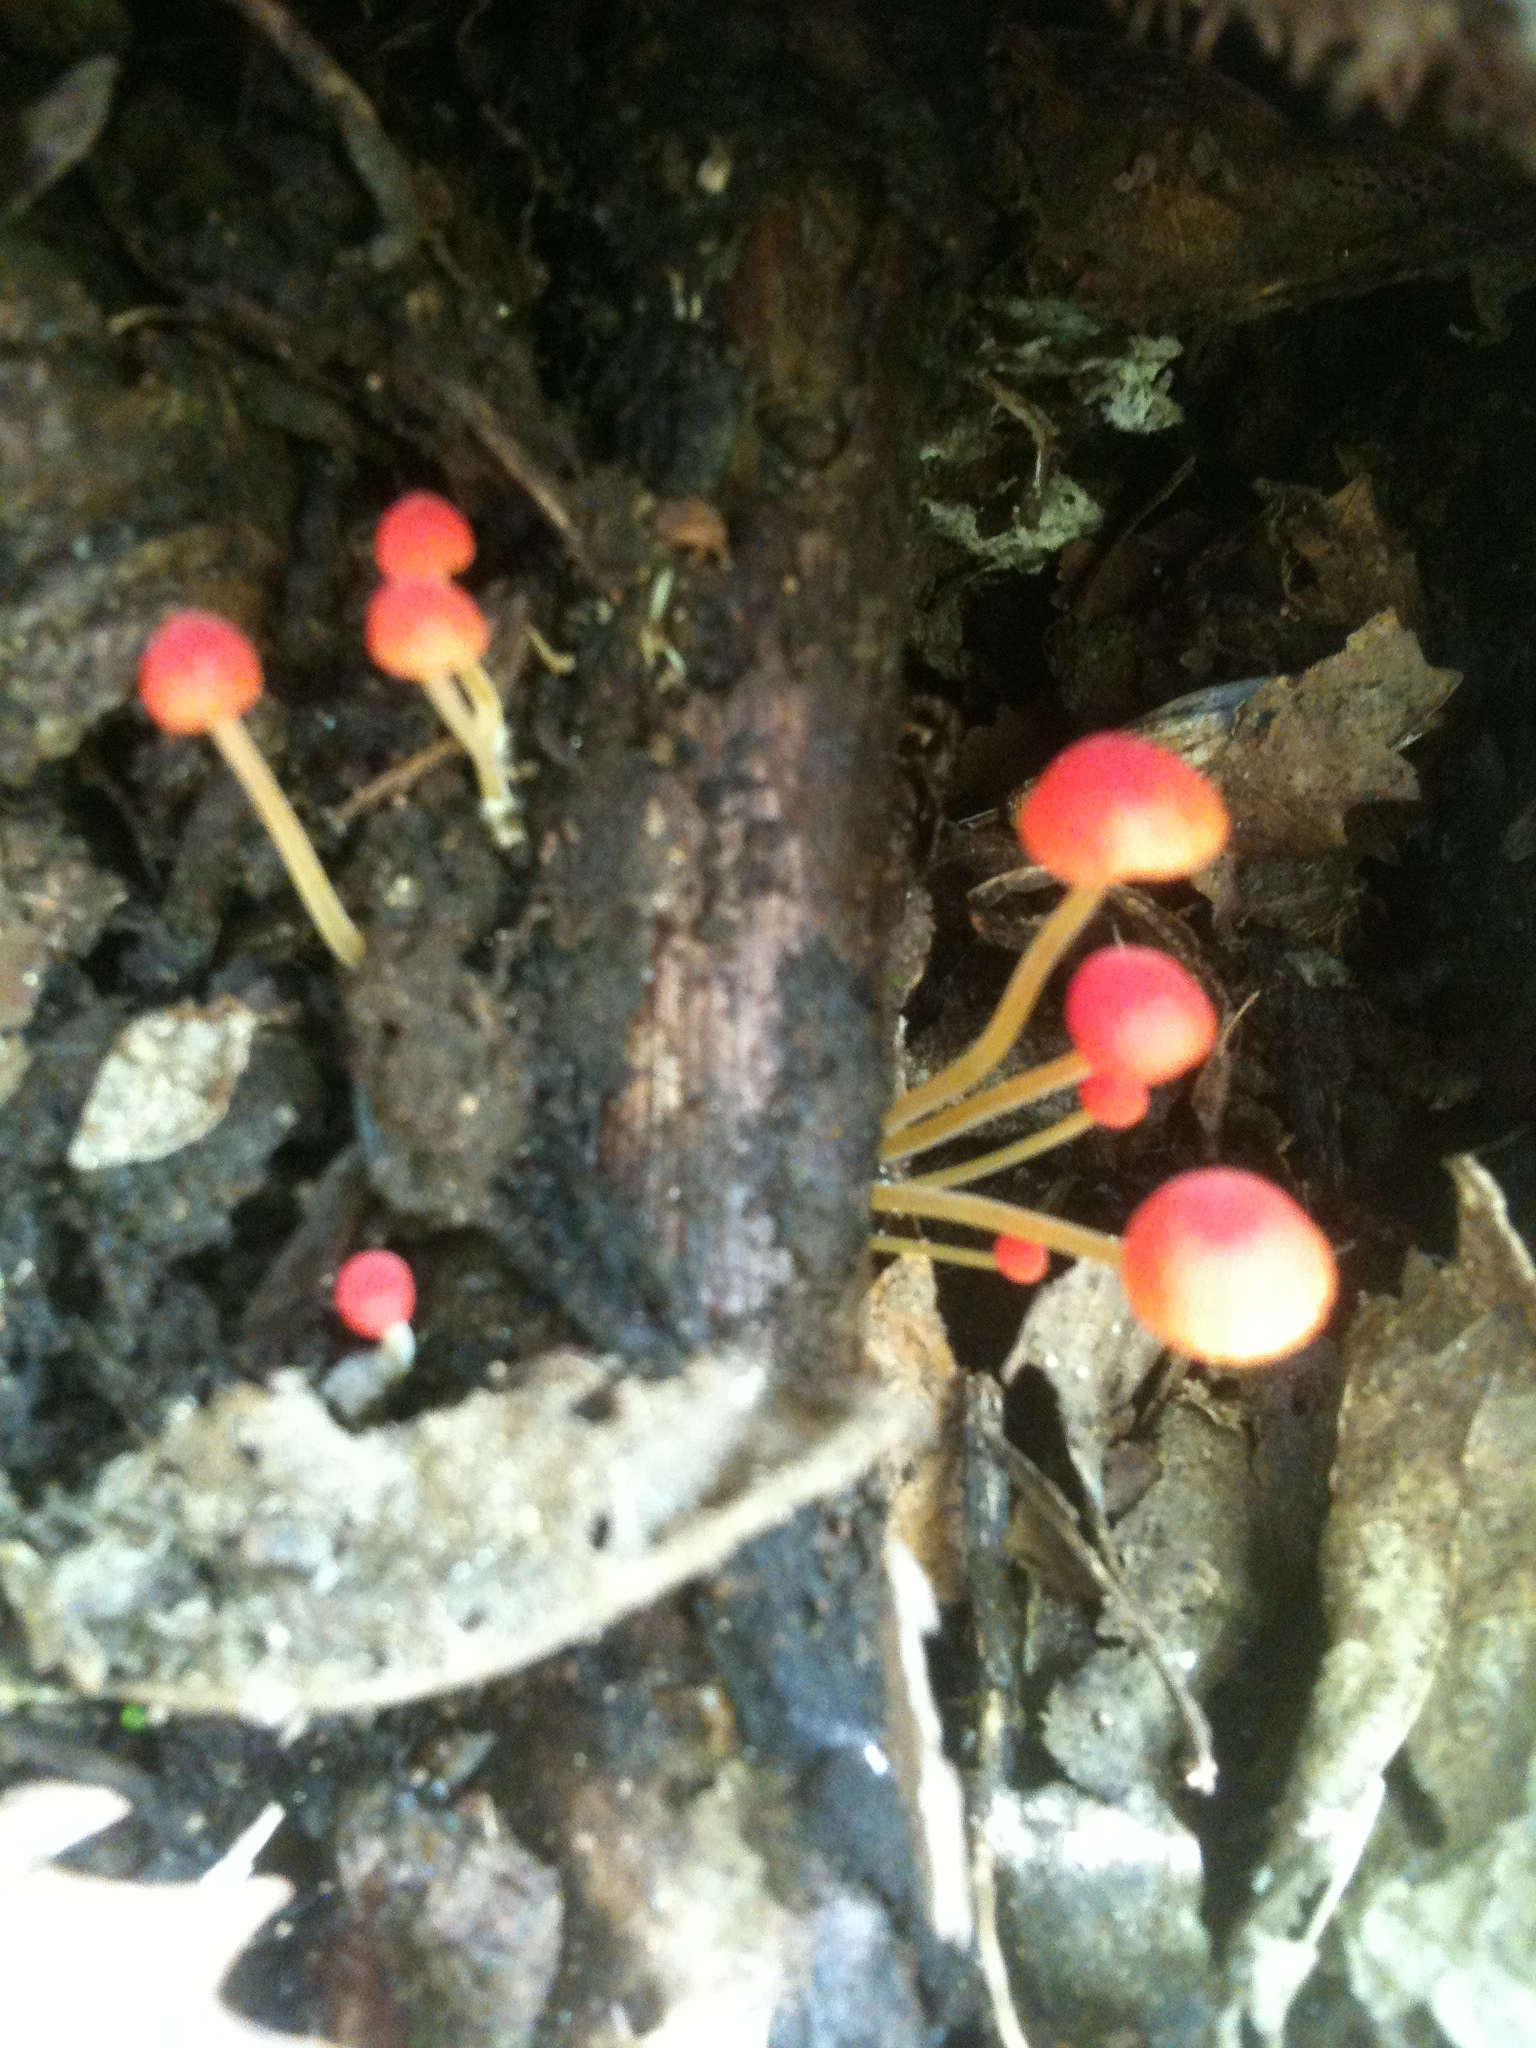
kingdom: Fungi
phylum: Basidiomycota
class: Agaricomycetes
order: Agaricales
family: Mycenaceae
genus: Mycena
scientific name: Mycena acicula
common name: Orange bonnet
